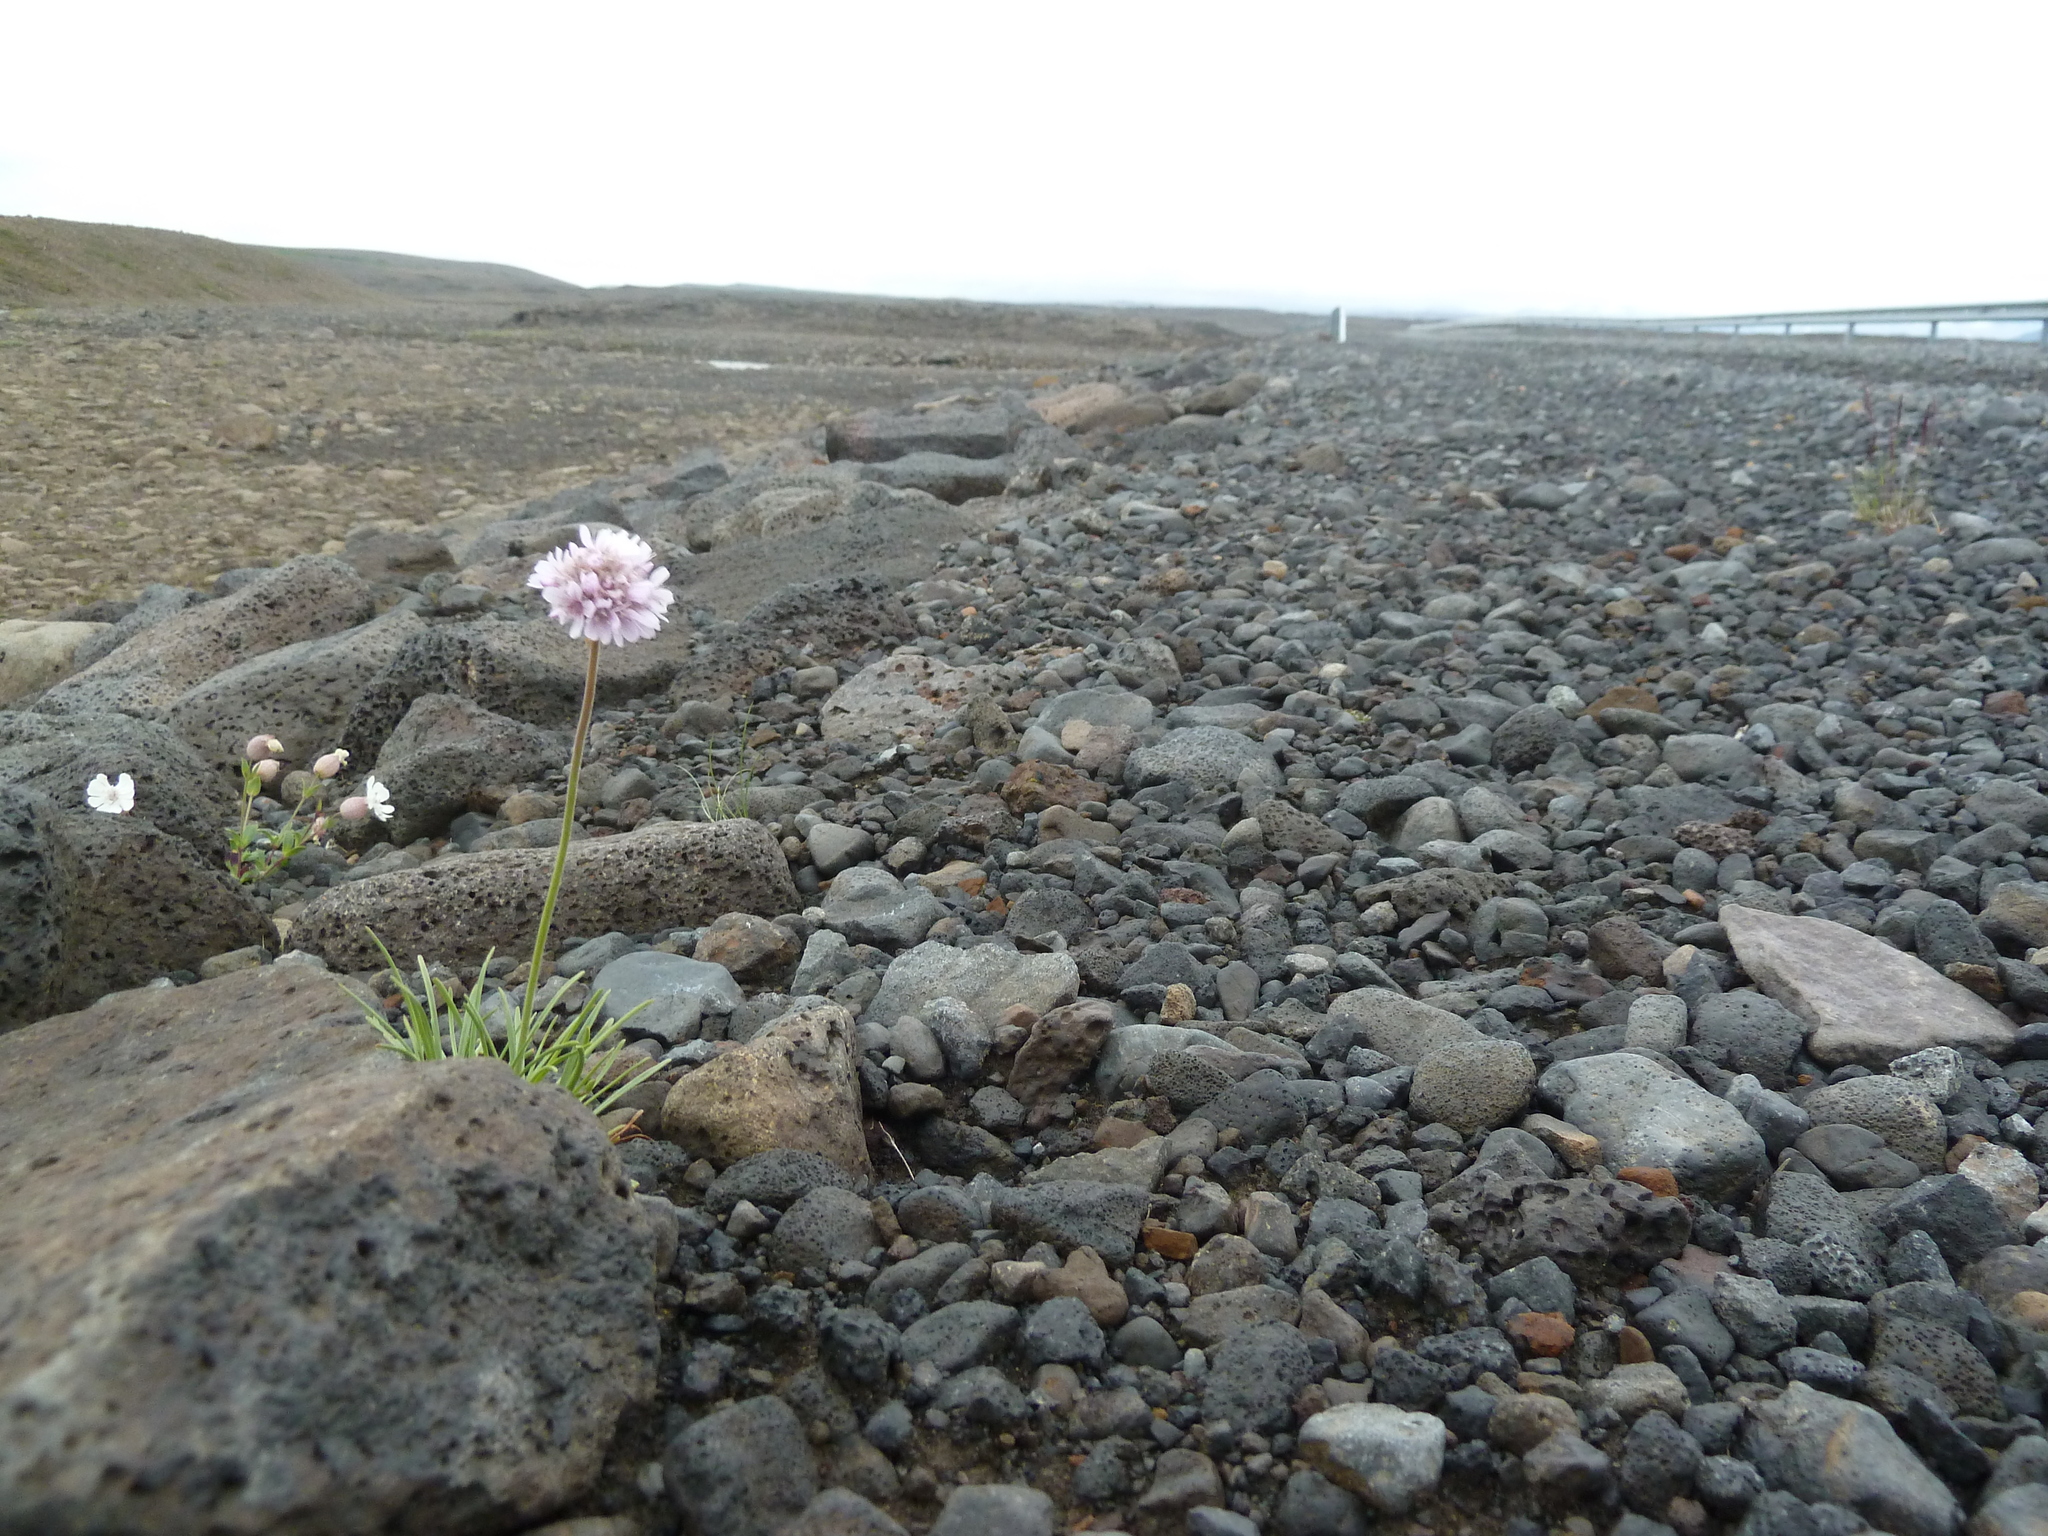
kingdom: Plantae
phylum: Tracheophyta
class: Magnoliopsida
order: Caryophyllales
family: Plumbaginaceae
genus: Armeria
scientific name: Armeria maritima
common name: Thrift
